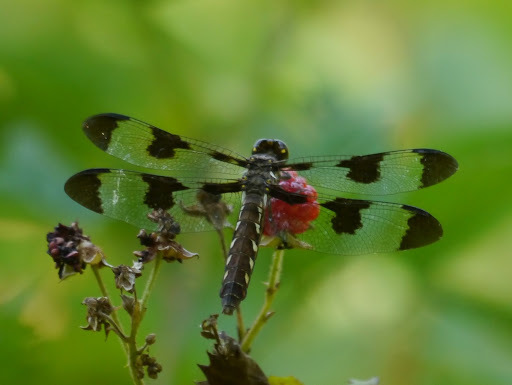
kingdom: Animalia
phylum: Arthropoda
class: Insecta
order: Odonata
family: Libellulidae
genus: Plathemis
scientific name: Plathemis lydia
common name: Common whitetail
